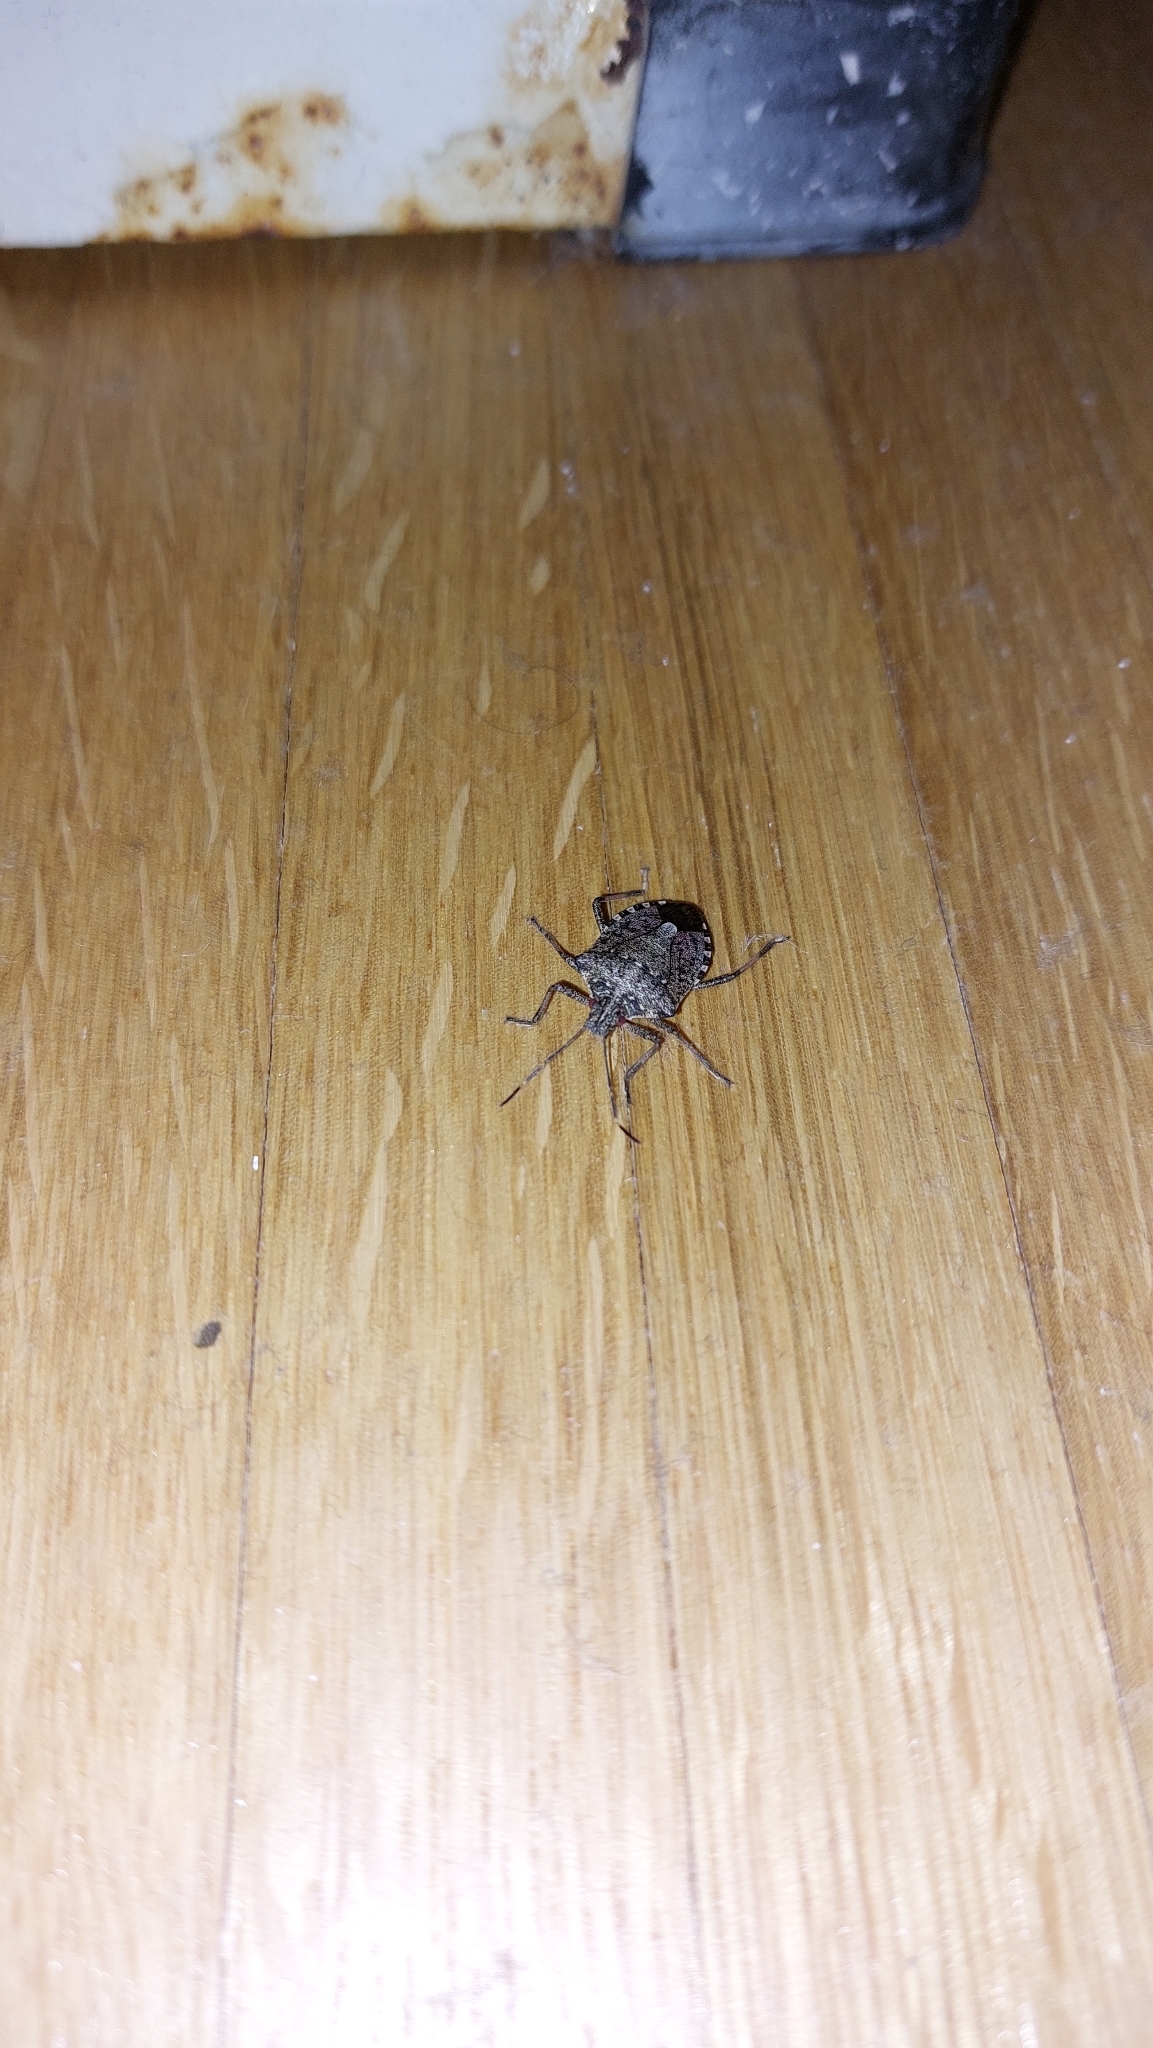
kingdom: Animalia
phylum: Arthropoda
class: Insecta
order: Hemiptera
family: Pentatomidae
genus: Halyomorpha
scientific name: Halyomorpha halys
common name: Brown marmorated stink bug
